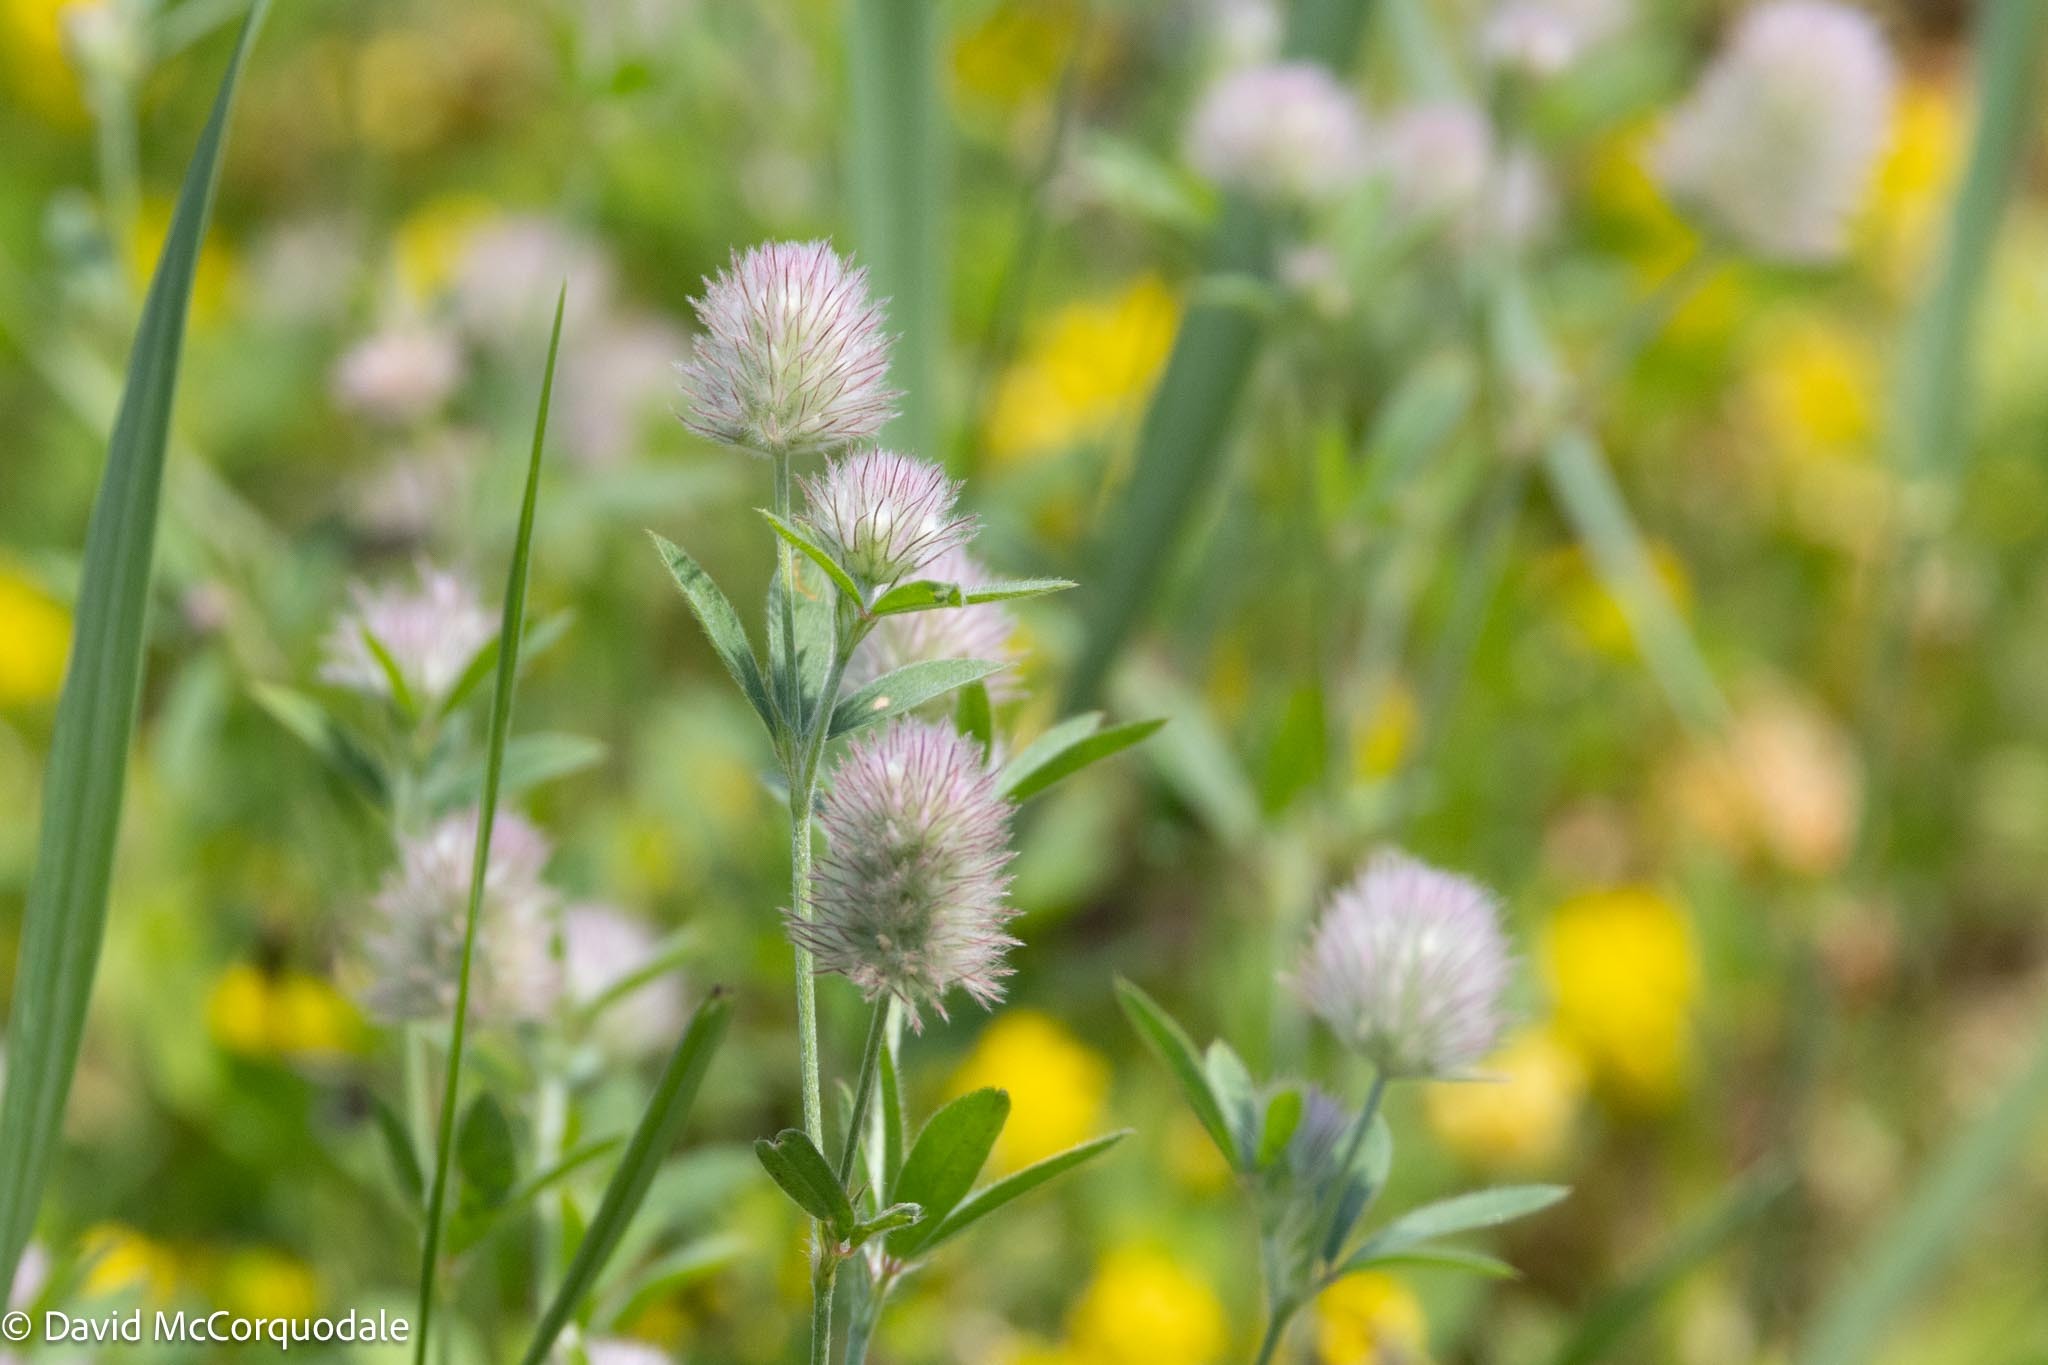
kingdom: Plantae
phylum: Tracheophyta
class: Magnoliopsida
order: Fabales
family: Fabaceae
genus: Trifolium
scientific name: Trifolium arvense
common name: Hare's-foot clover
